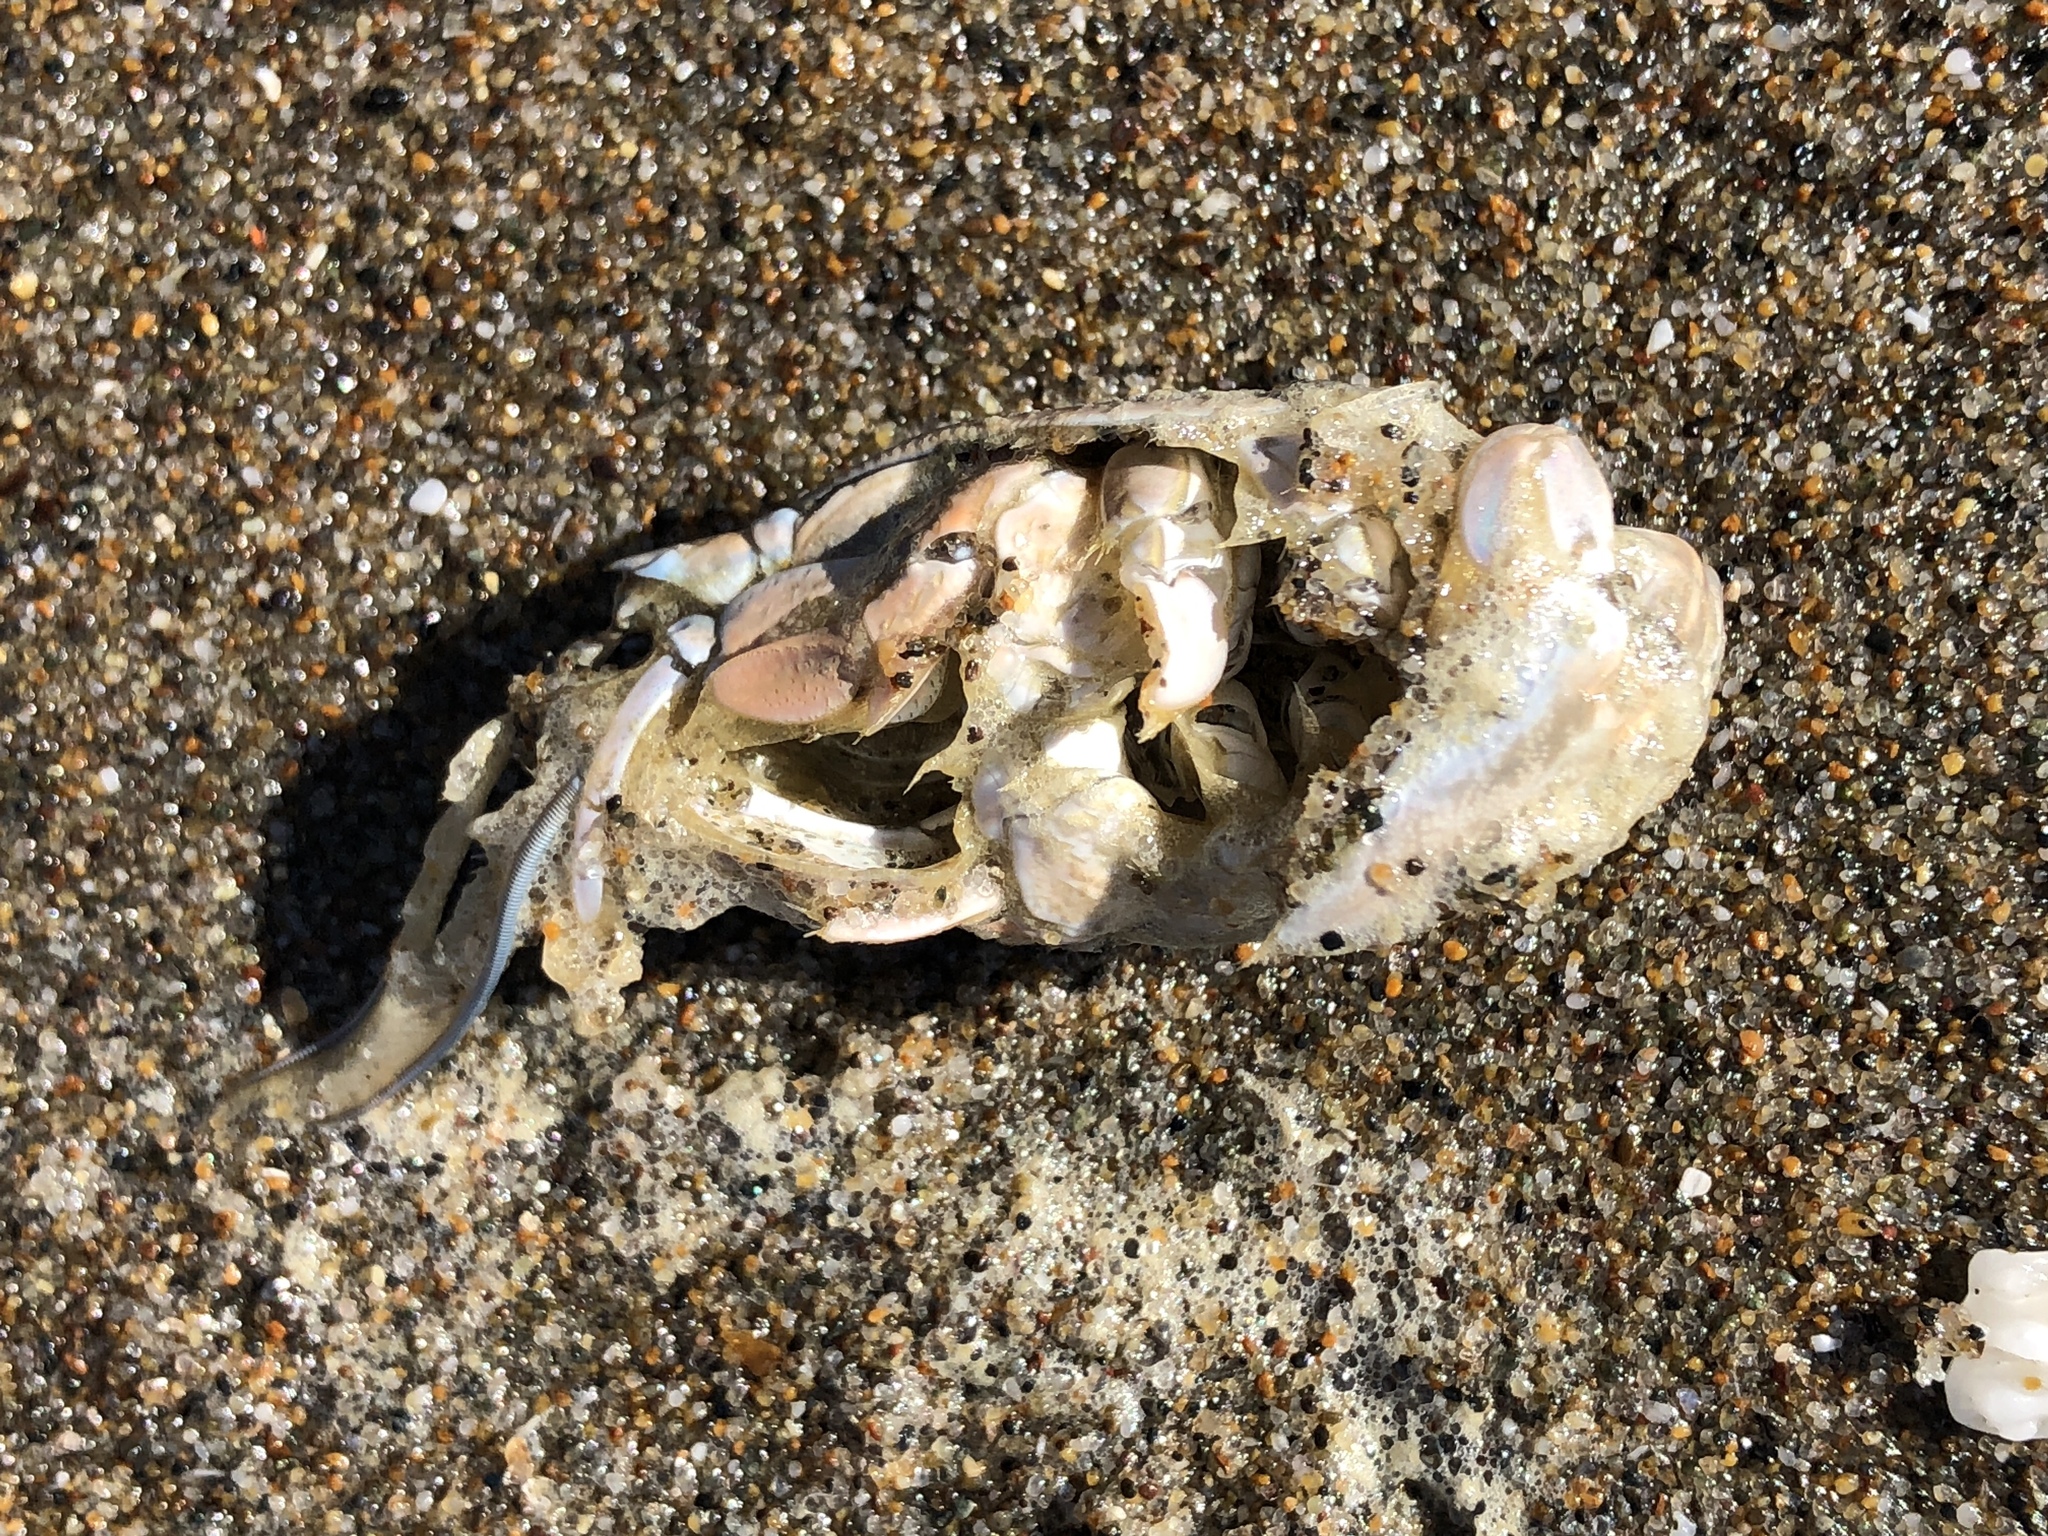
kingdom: Animalia
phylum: Arthropoda
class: Malacostraca
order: Decapoda
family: Hippidae
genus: Emerita
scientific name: Emerita analoga
